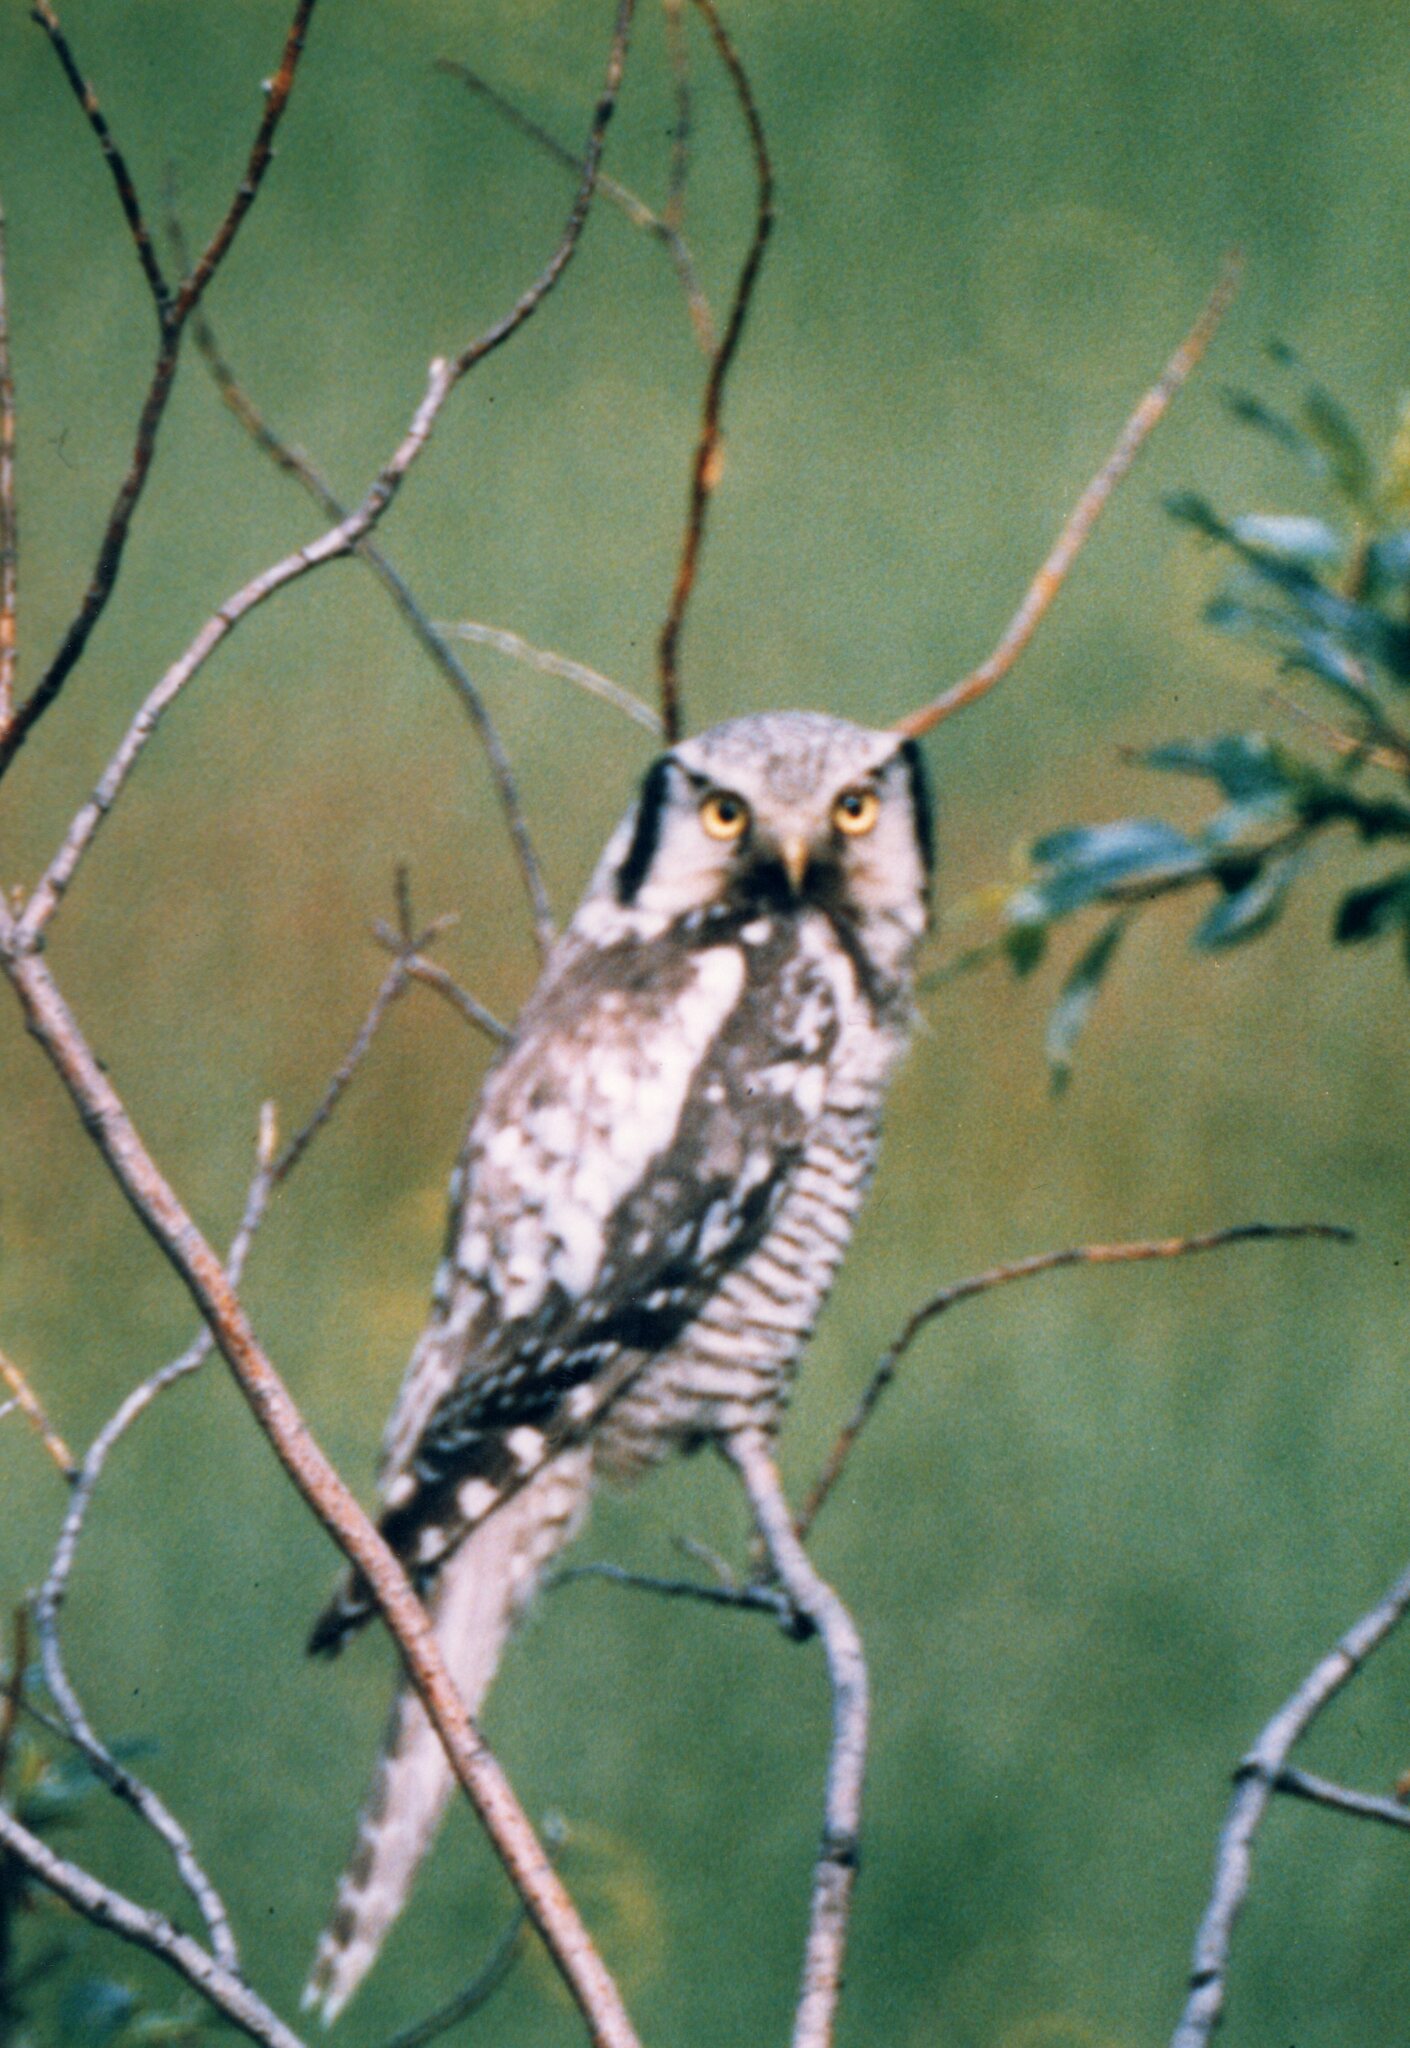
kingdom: Animalia
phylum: Chordata
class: Aves
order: Strigiformes
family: Strigidae
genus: Surnia
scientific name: Surnia ulula
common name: Northern hawk-owl
